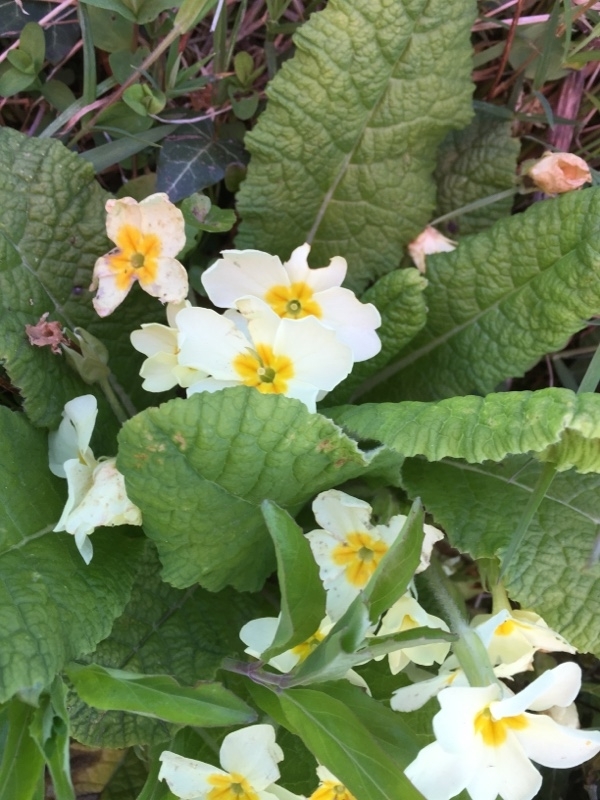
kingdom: Plantae
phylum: Tracheophyta
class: Magnoliopsida
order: Ericales
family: Primulaceae
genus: Primula
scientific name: Primula vulgaris
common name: Primrose
